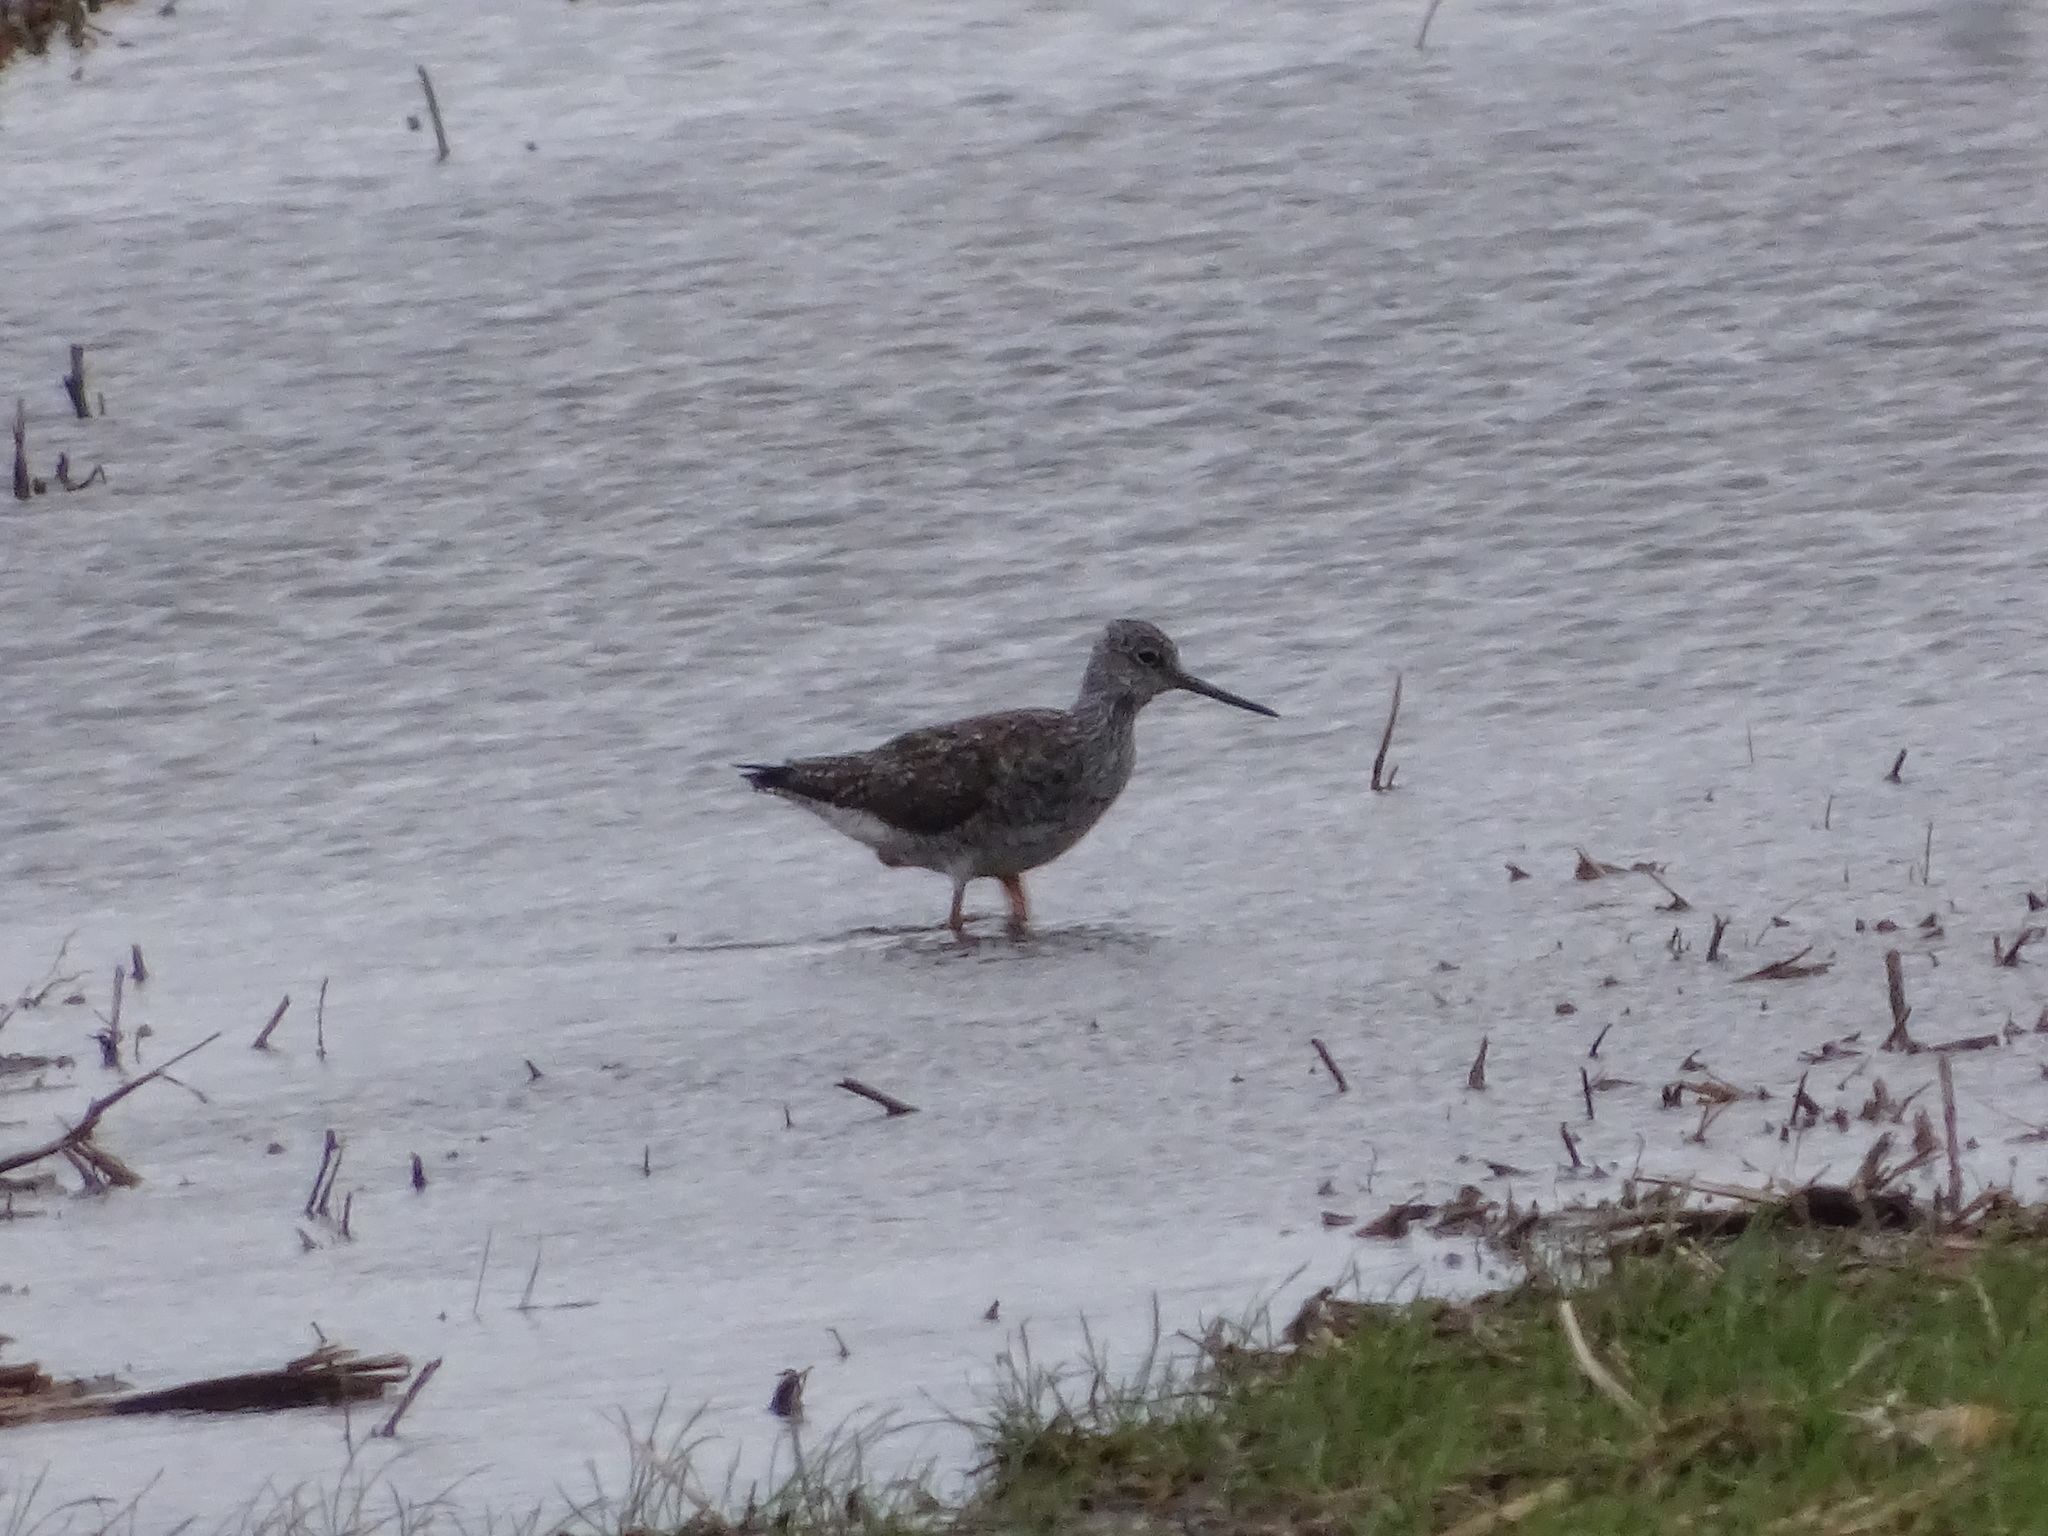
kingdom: Animalia
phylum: Chordata
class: Aves
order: Charadriiformes
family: Scolopacidae
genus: Tringa
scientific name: Tringa melanoleuca
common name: Greater yellowlegs
